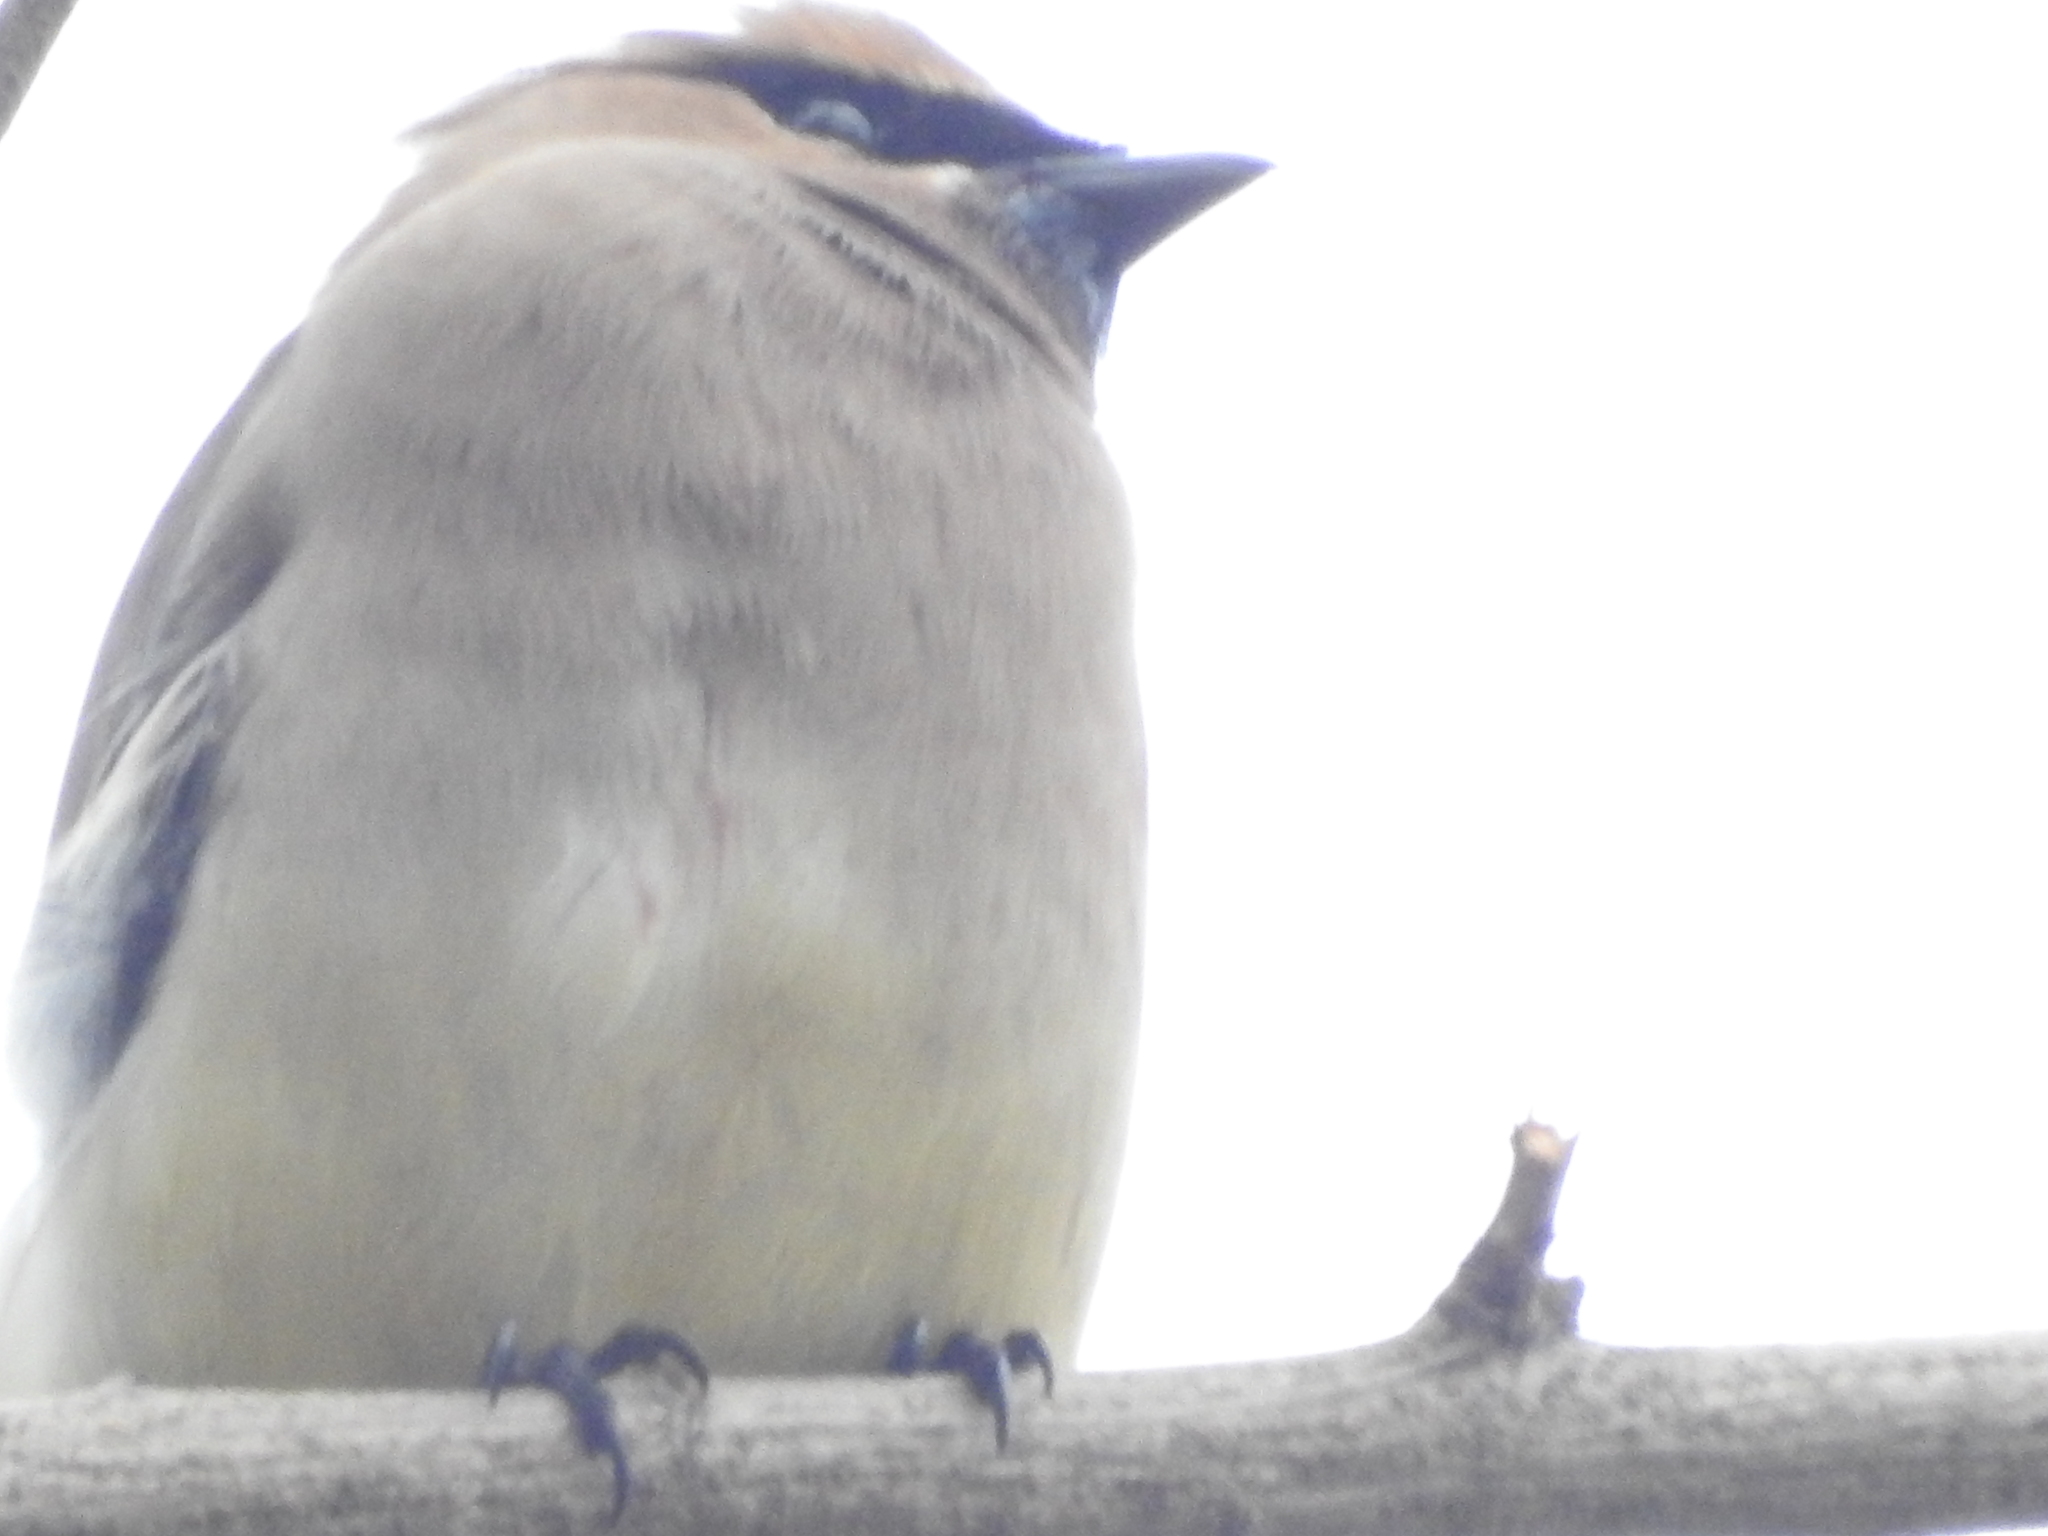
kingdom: Animalia
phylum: Chordata
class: Aves
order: Passeriformes
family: Bombycillidae
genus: Bombycilla
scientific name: Bombycilla cedrorum
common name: Cedar waxwing
